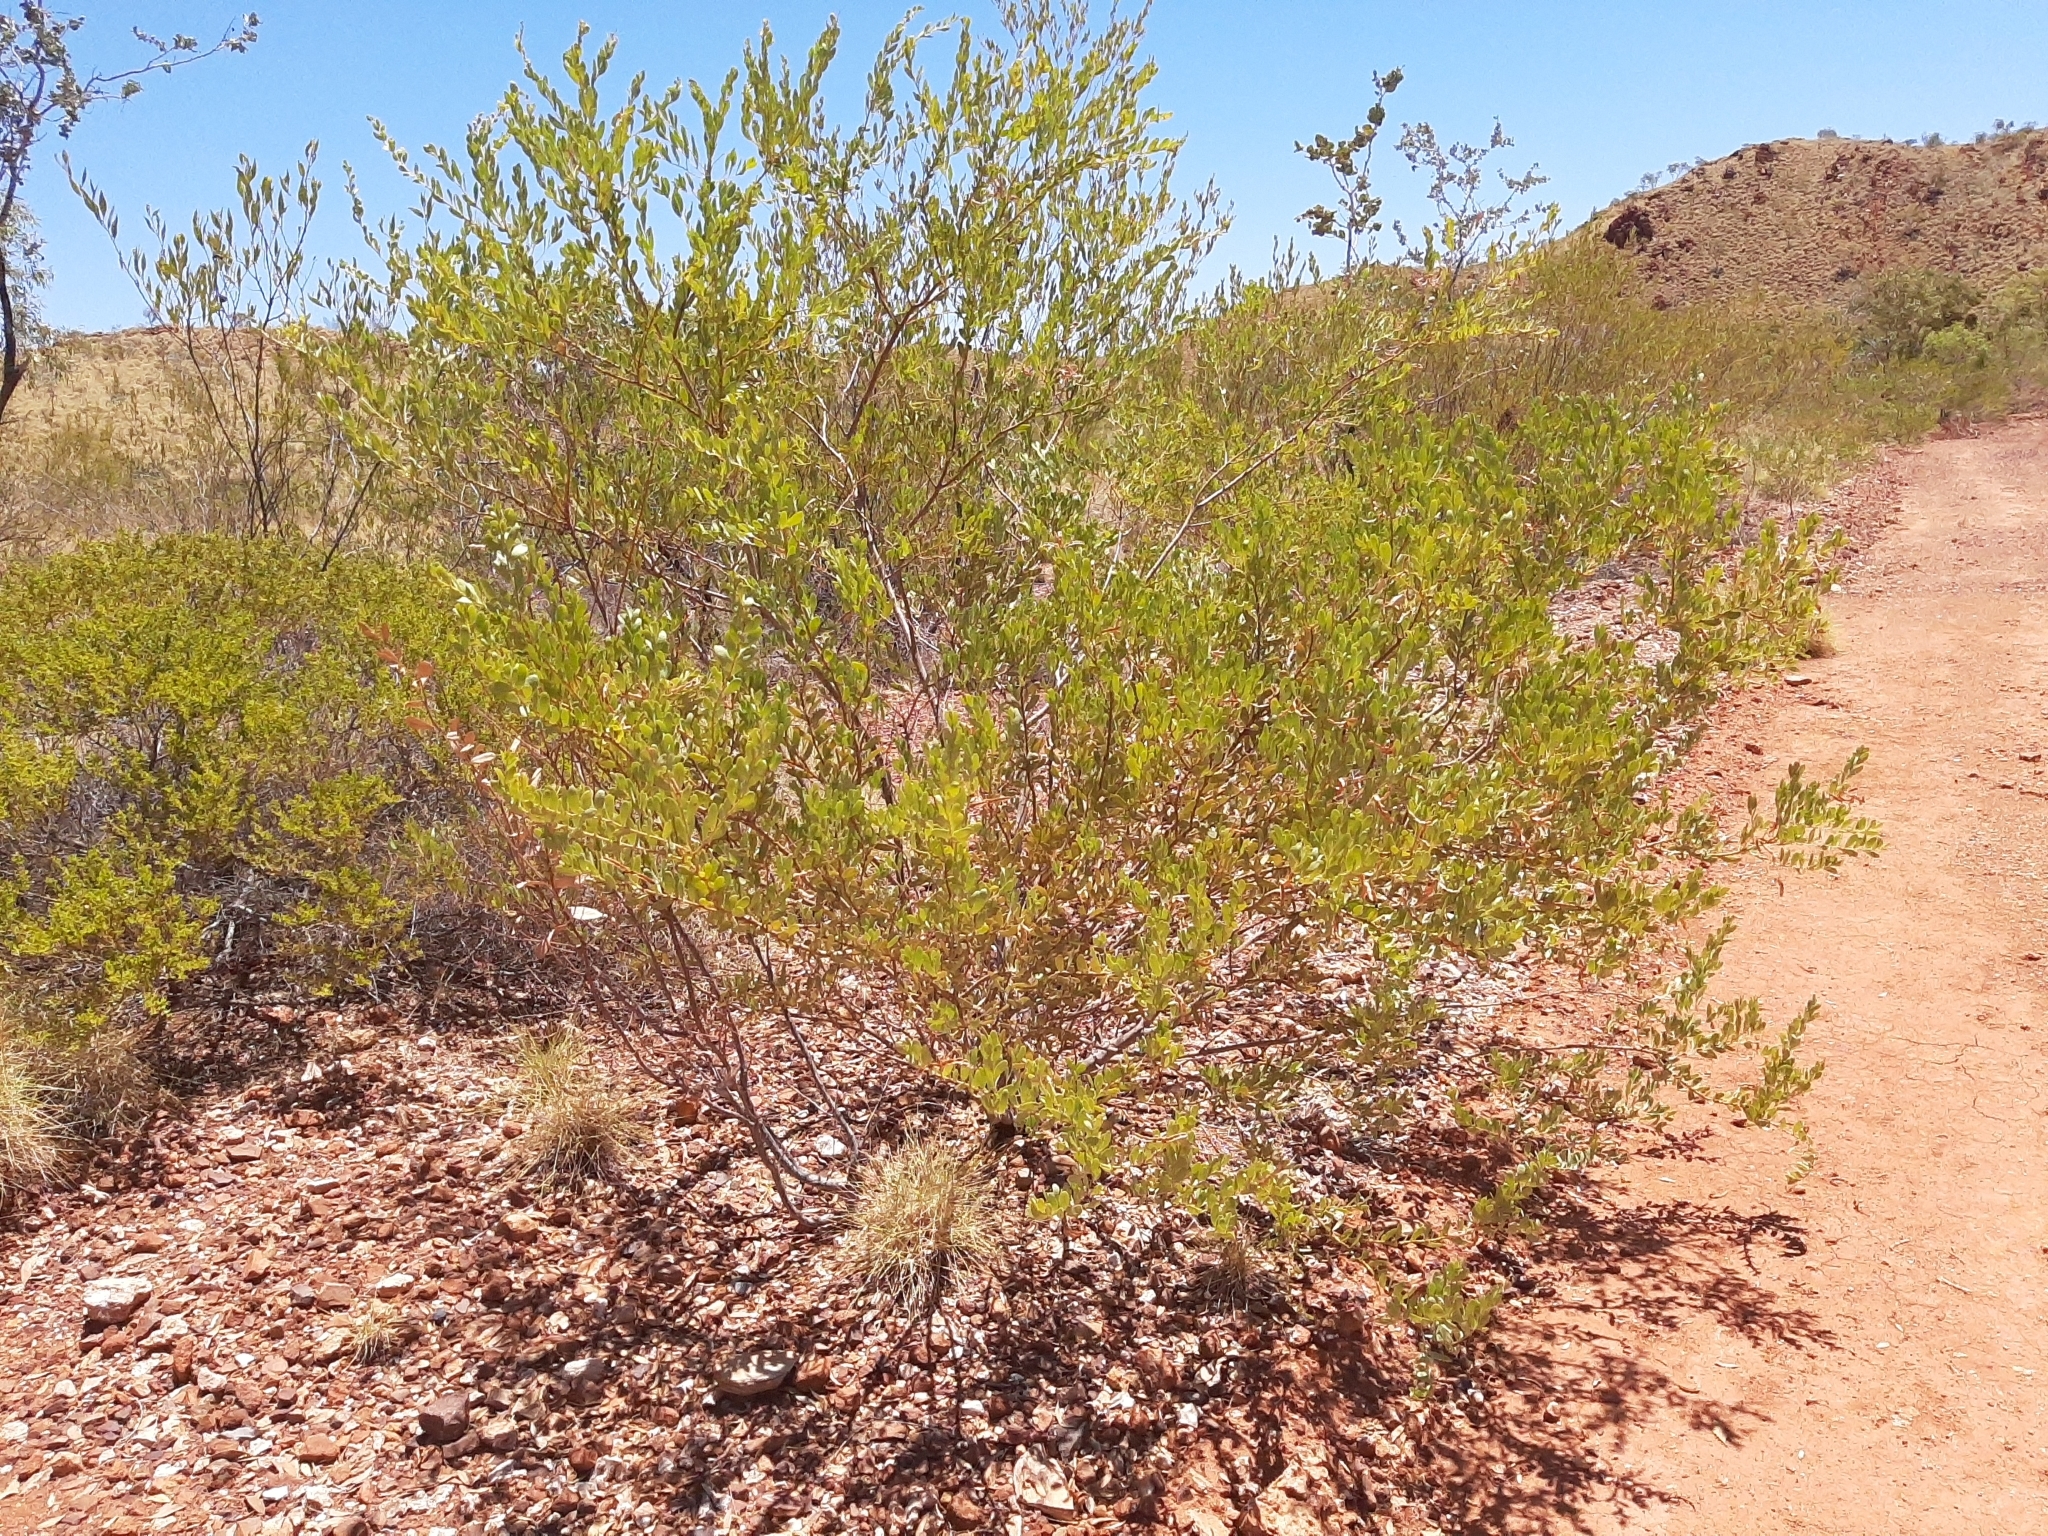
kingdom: Plantae
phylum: Tracheophyta
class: Magnoliopsida
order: Fabales
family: Fabaceae
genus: Acacia
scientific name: Acacia bivenosa
